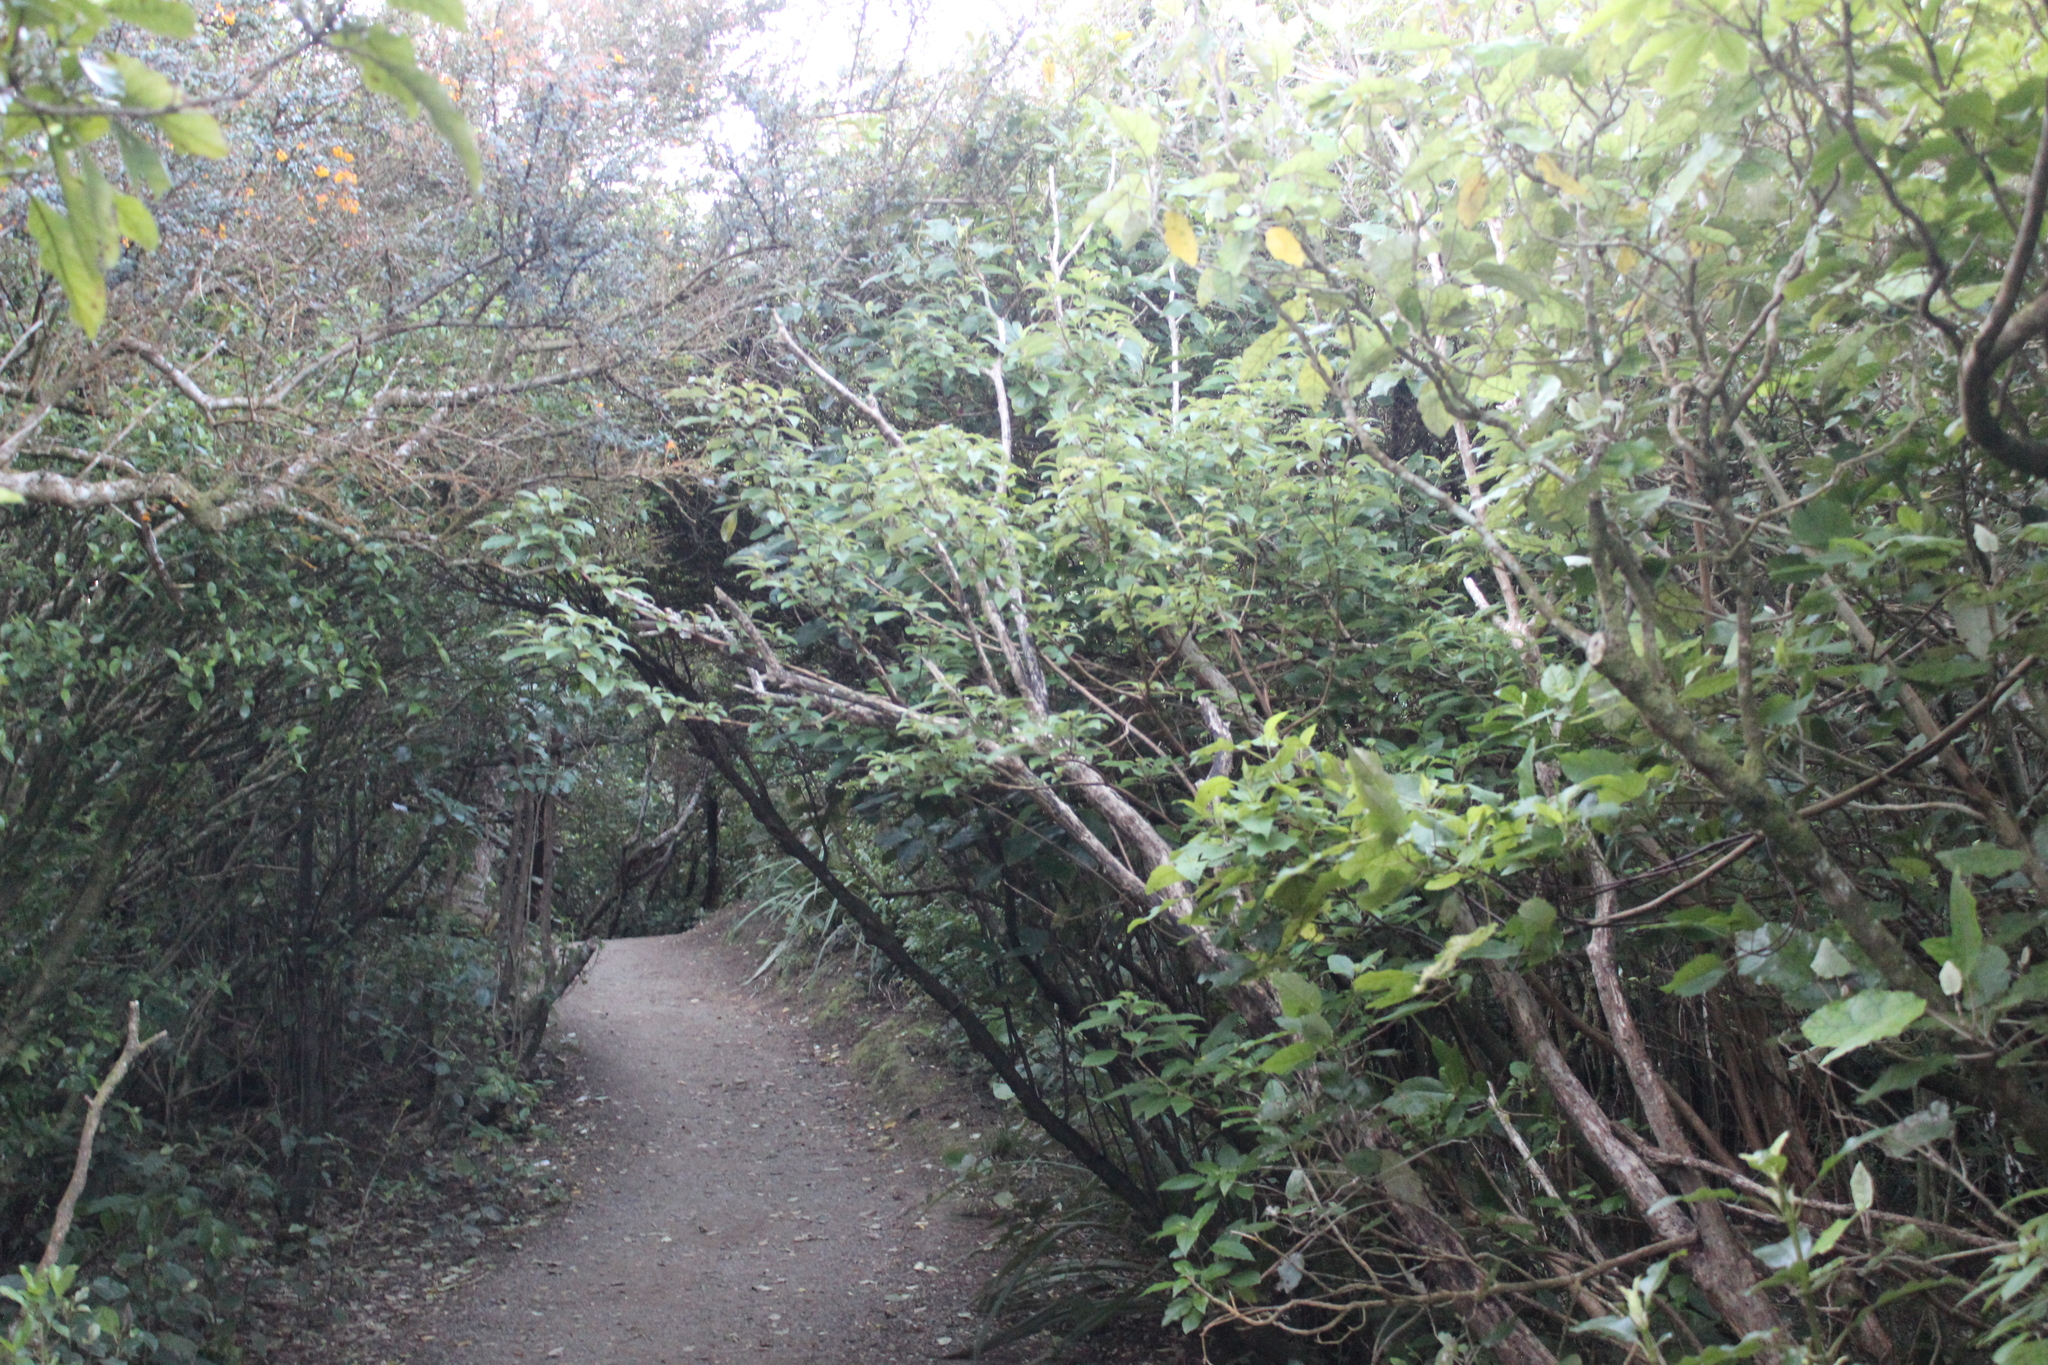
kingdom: Plantae
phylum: Tracheophyta
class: Magnoliopsida
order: Myrtales
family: Onagraceae
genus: Fuchsia
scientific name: Fuchsia excorticata
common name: Tree fuchsia
